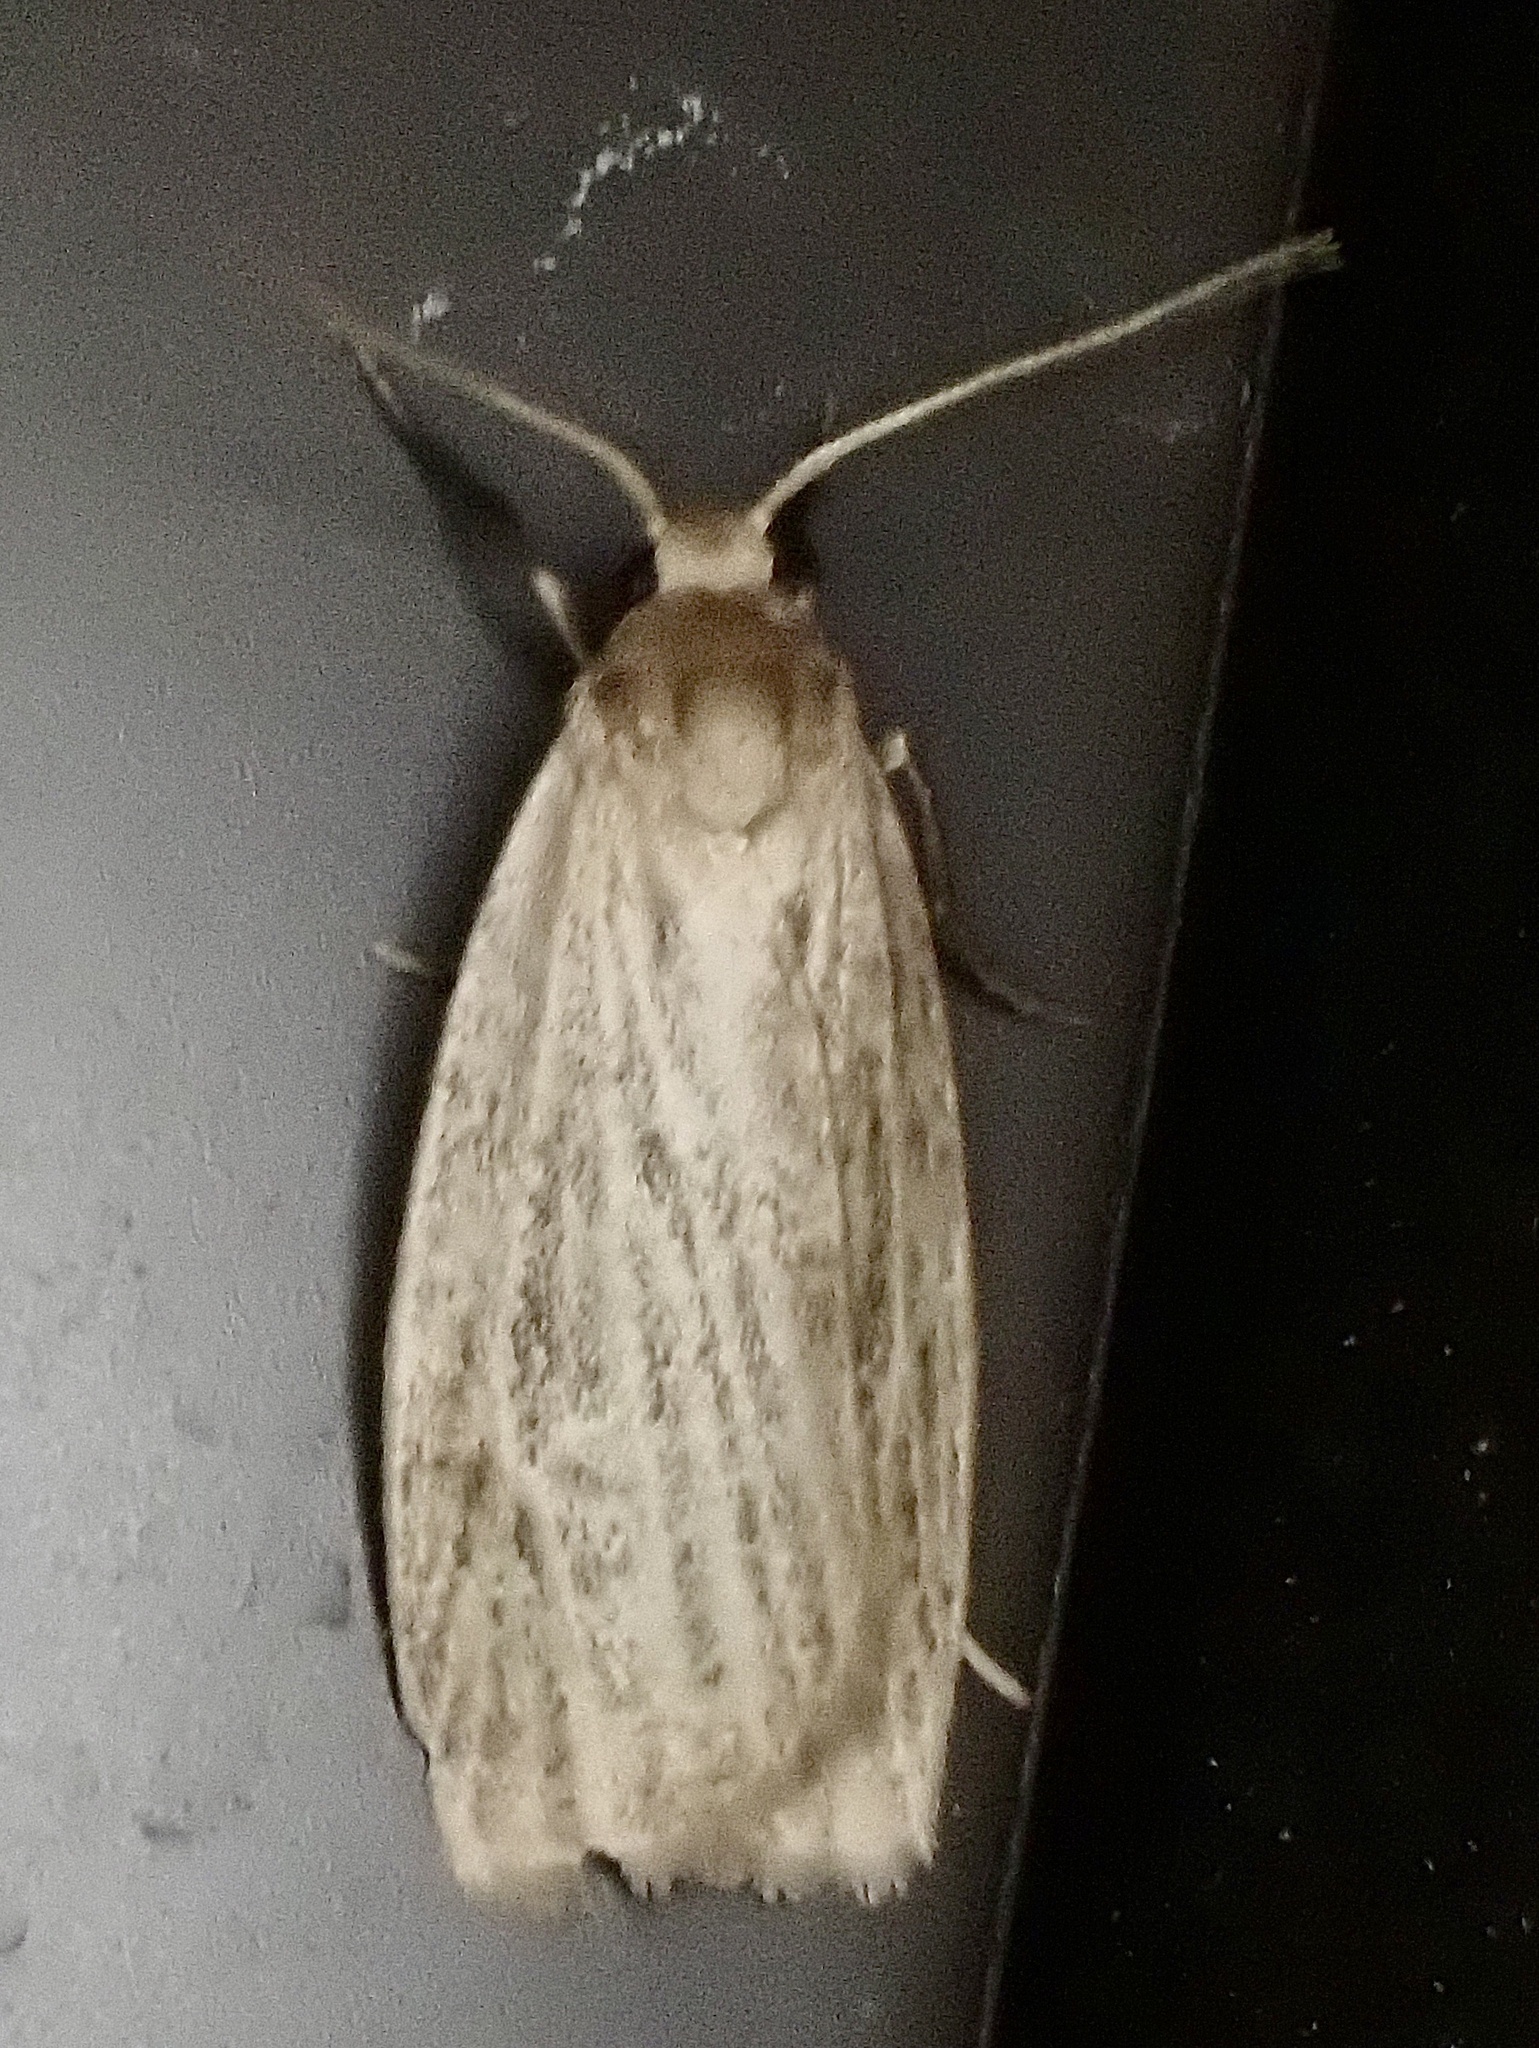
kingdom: Animalia
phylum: Arthropoda
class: Insecta
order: Lepidoptera
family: Erebidae
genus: Crambidia
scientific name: Crambidia pallida
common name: Pale lichen moth
